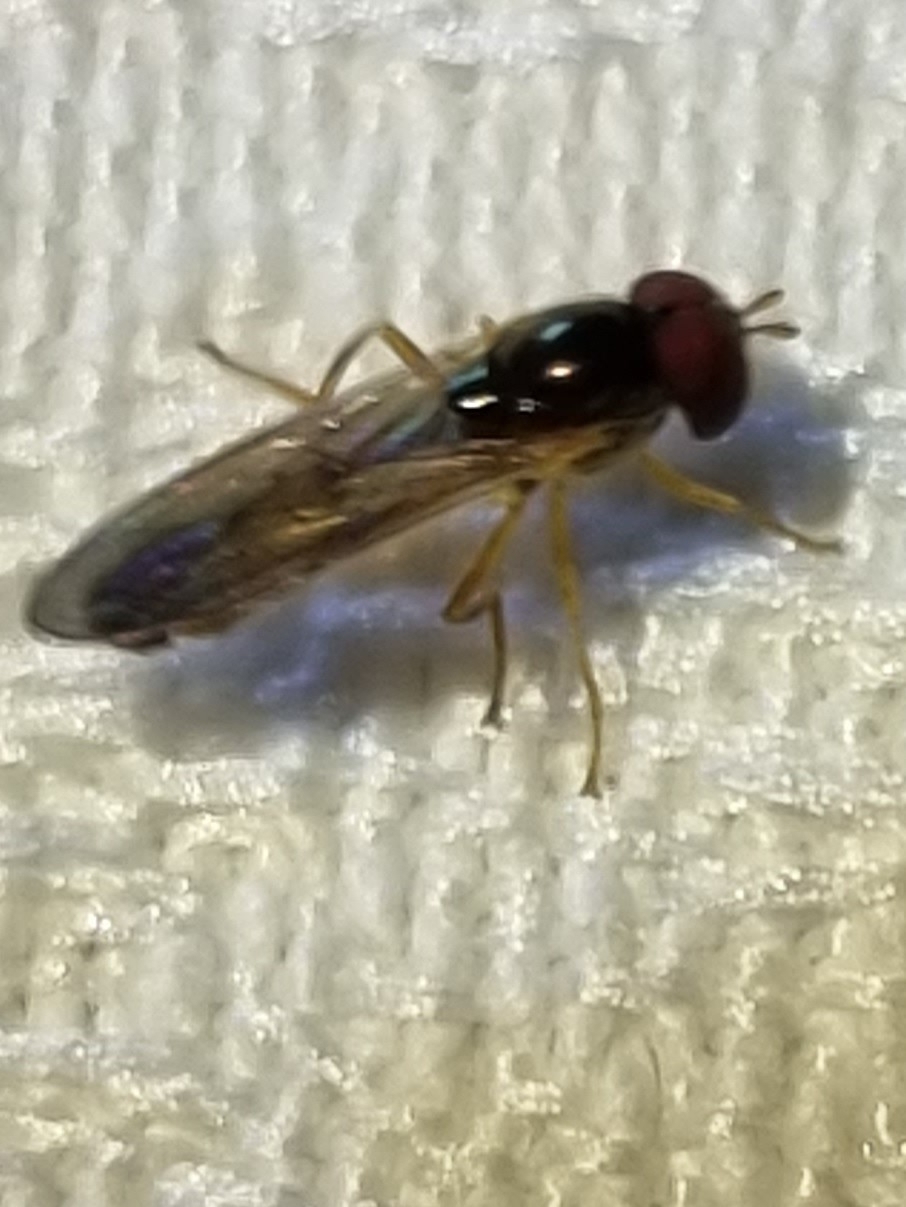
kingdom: Animalia
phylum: Arthropoda
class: Insecta
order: Diptera
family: Syrphidae
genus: Melanostoma
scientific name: Melanostoma apicale
